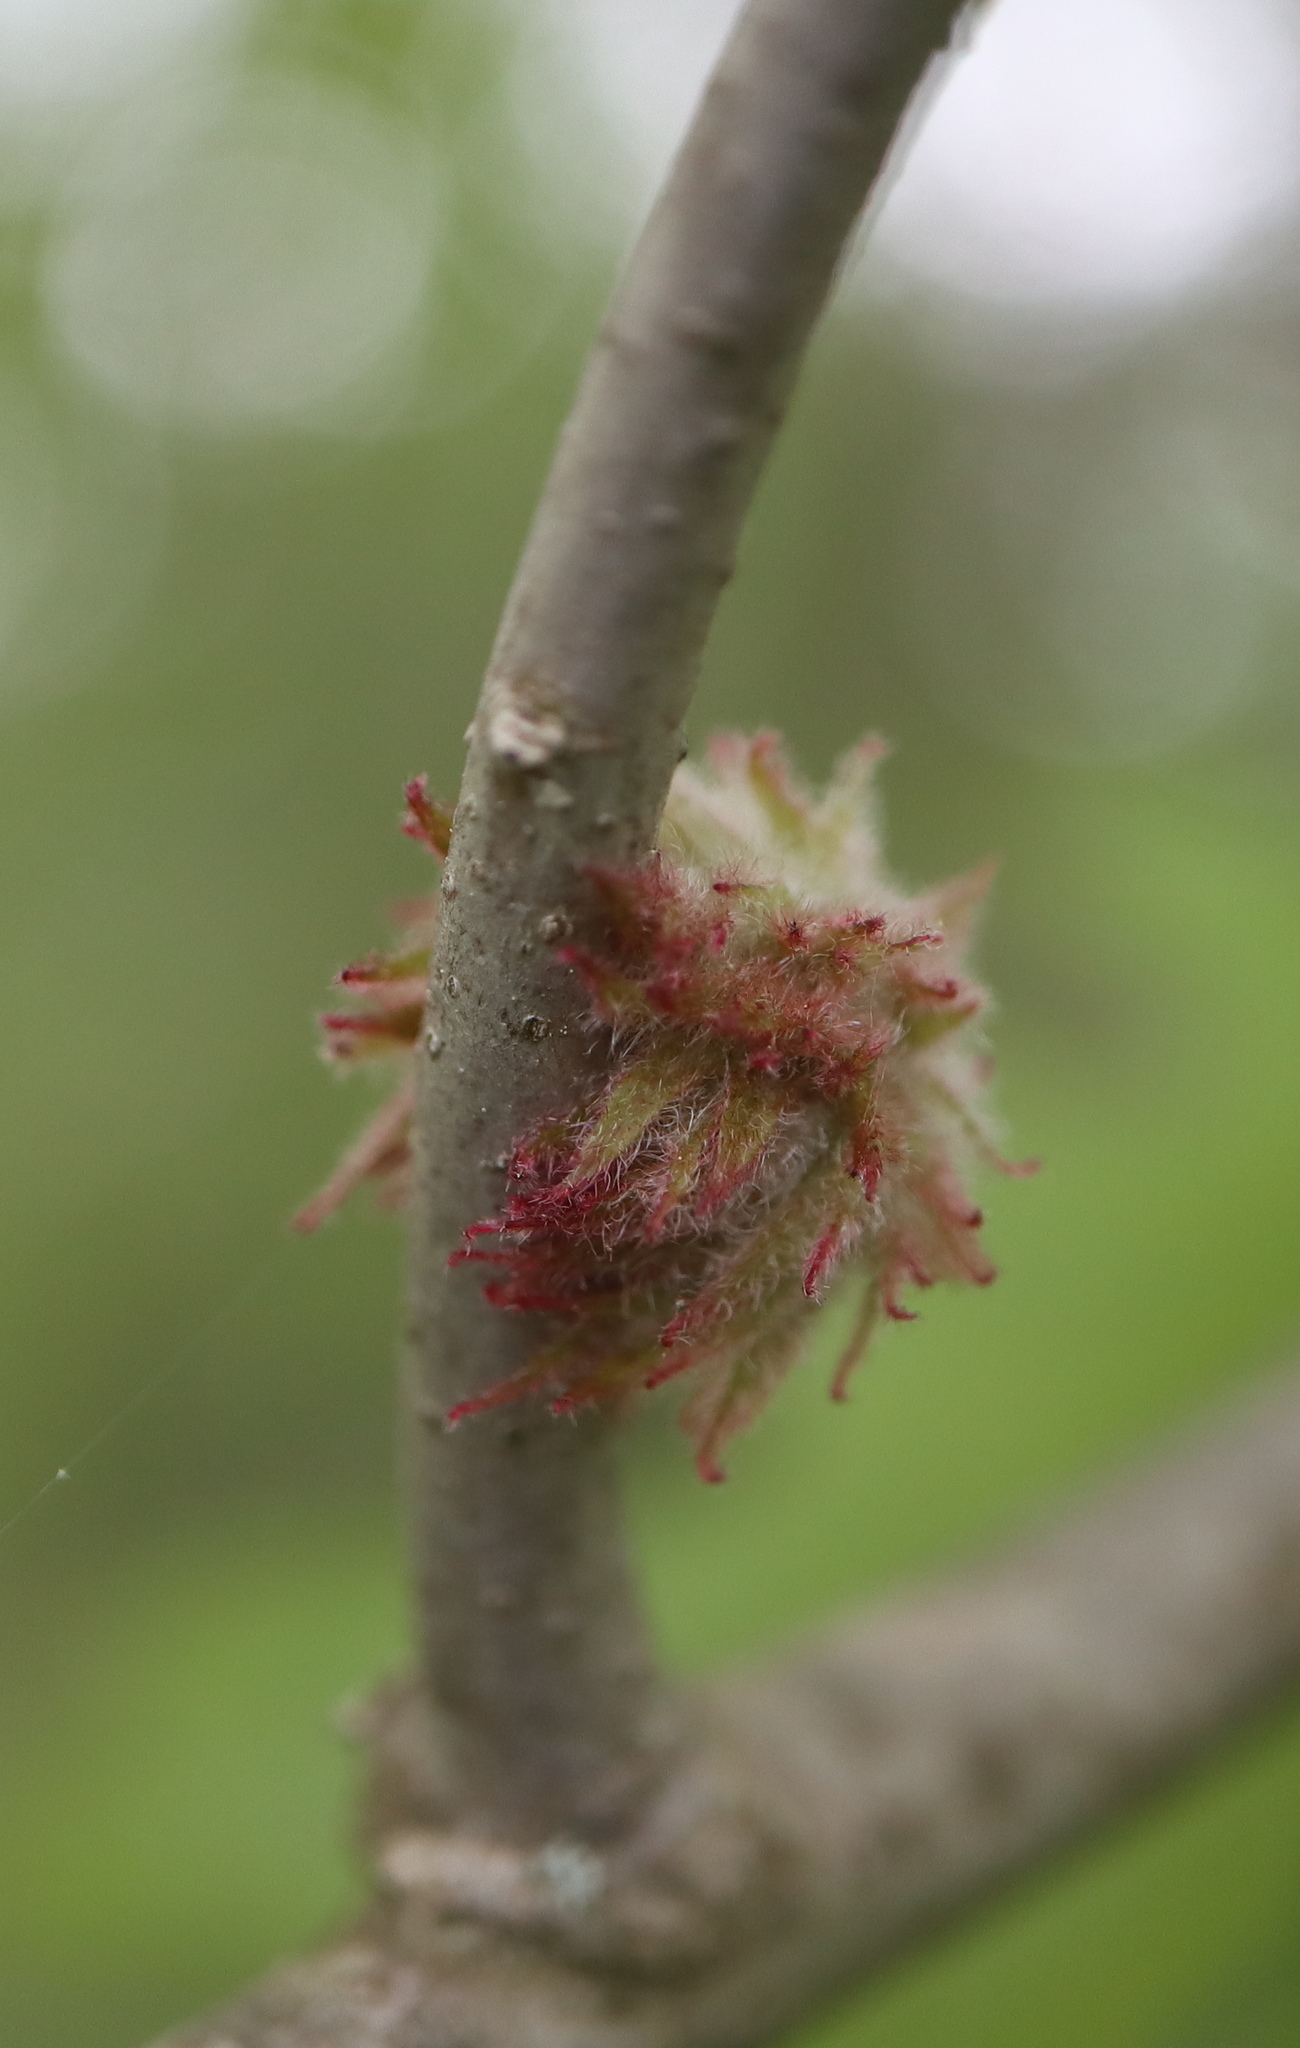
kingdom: Animalia
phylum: Arthropoda
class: Insecta
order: Hymenoptera
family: Cynipidae
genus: Dryocosmus
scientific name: Dryocosmus
